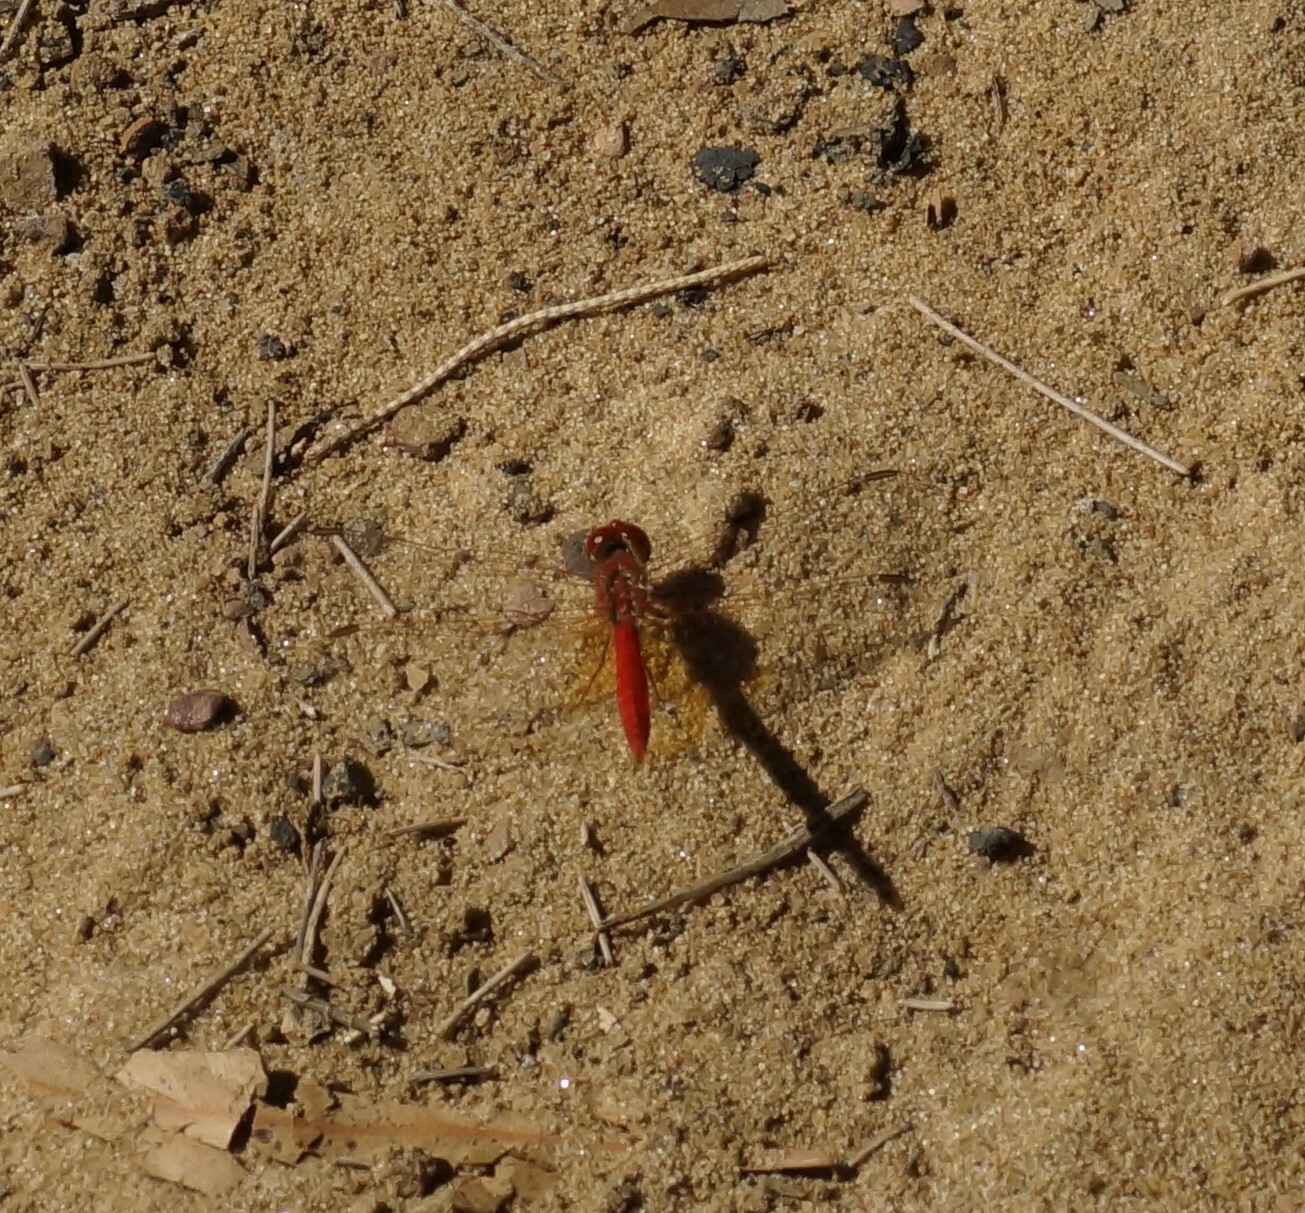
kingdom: Animalia
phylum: Arthropoda
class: Insecta
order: Odonata
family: Libellulidae
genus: Diplacodes
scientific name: Diplacodes haematodes
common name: Scarlet percher
